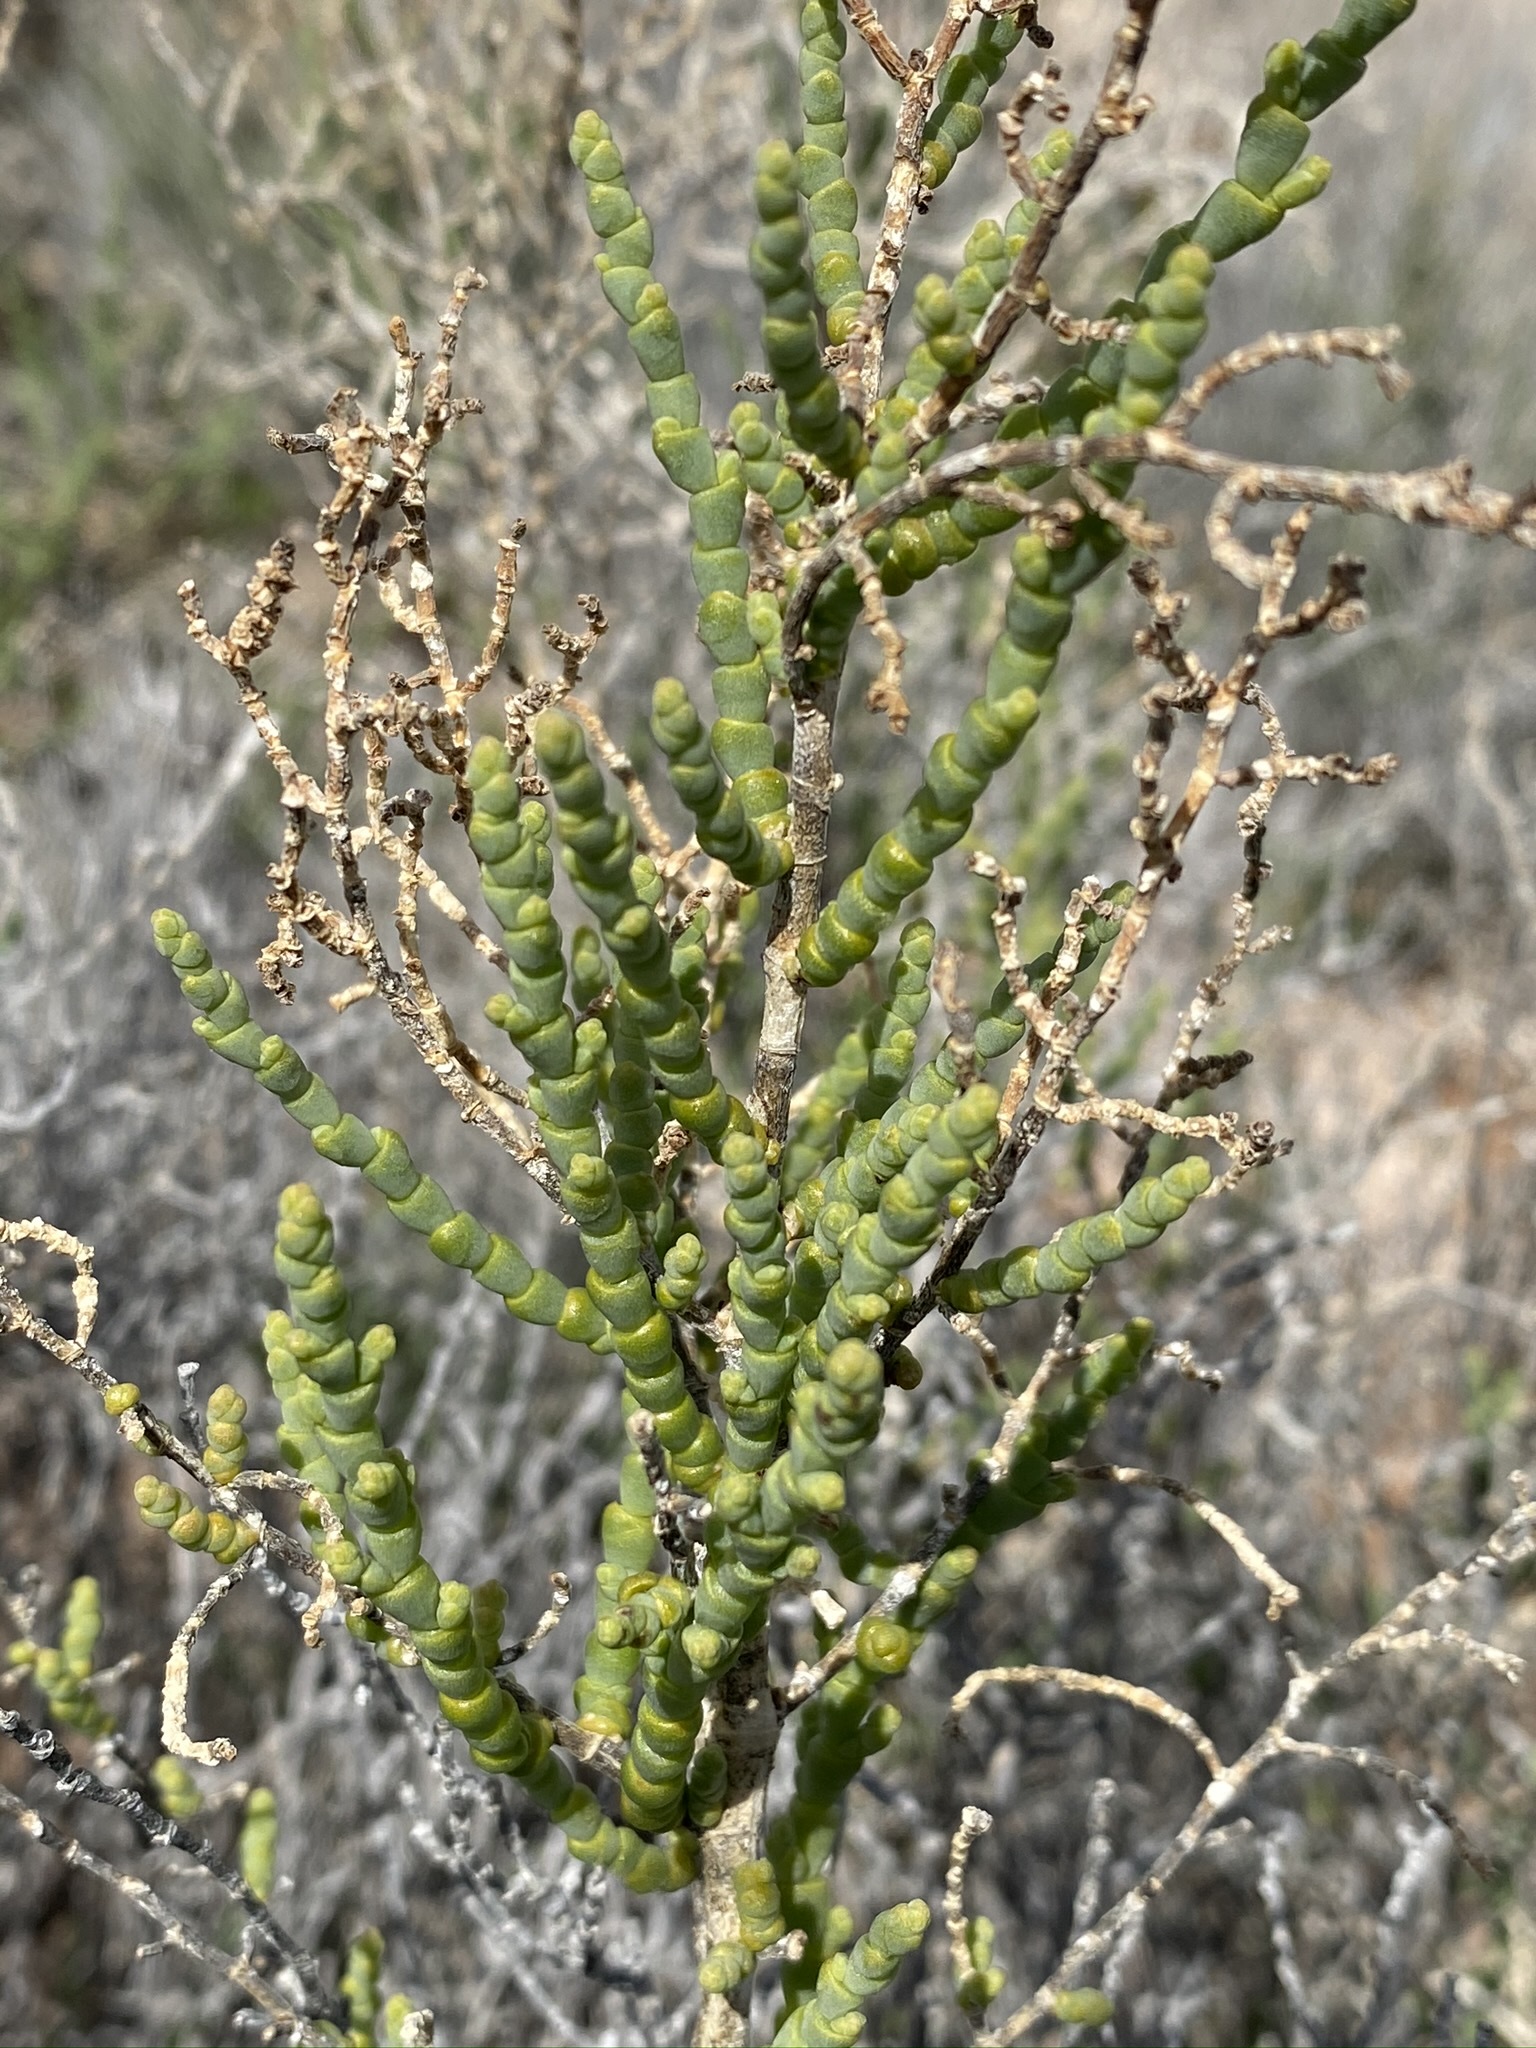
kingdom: Plantae
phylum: Tracheophyta
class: Magnoliopsida
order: Caryophyllales
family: Amaranthaceae
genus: Allenrolfea
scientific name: Allenrolfea occidentalis
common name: Iodine-bush
